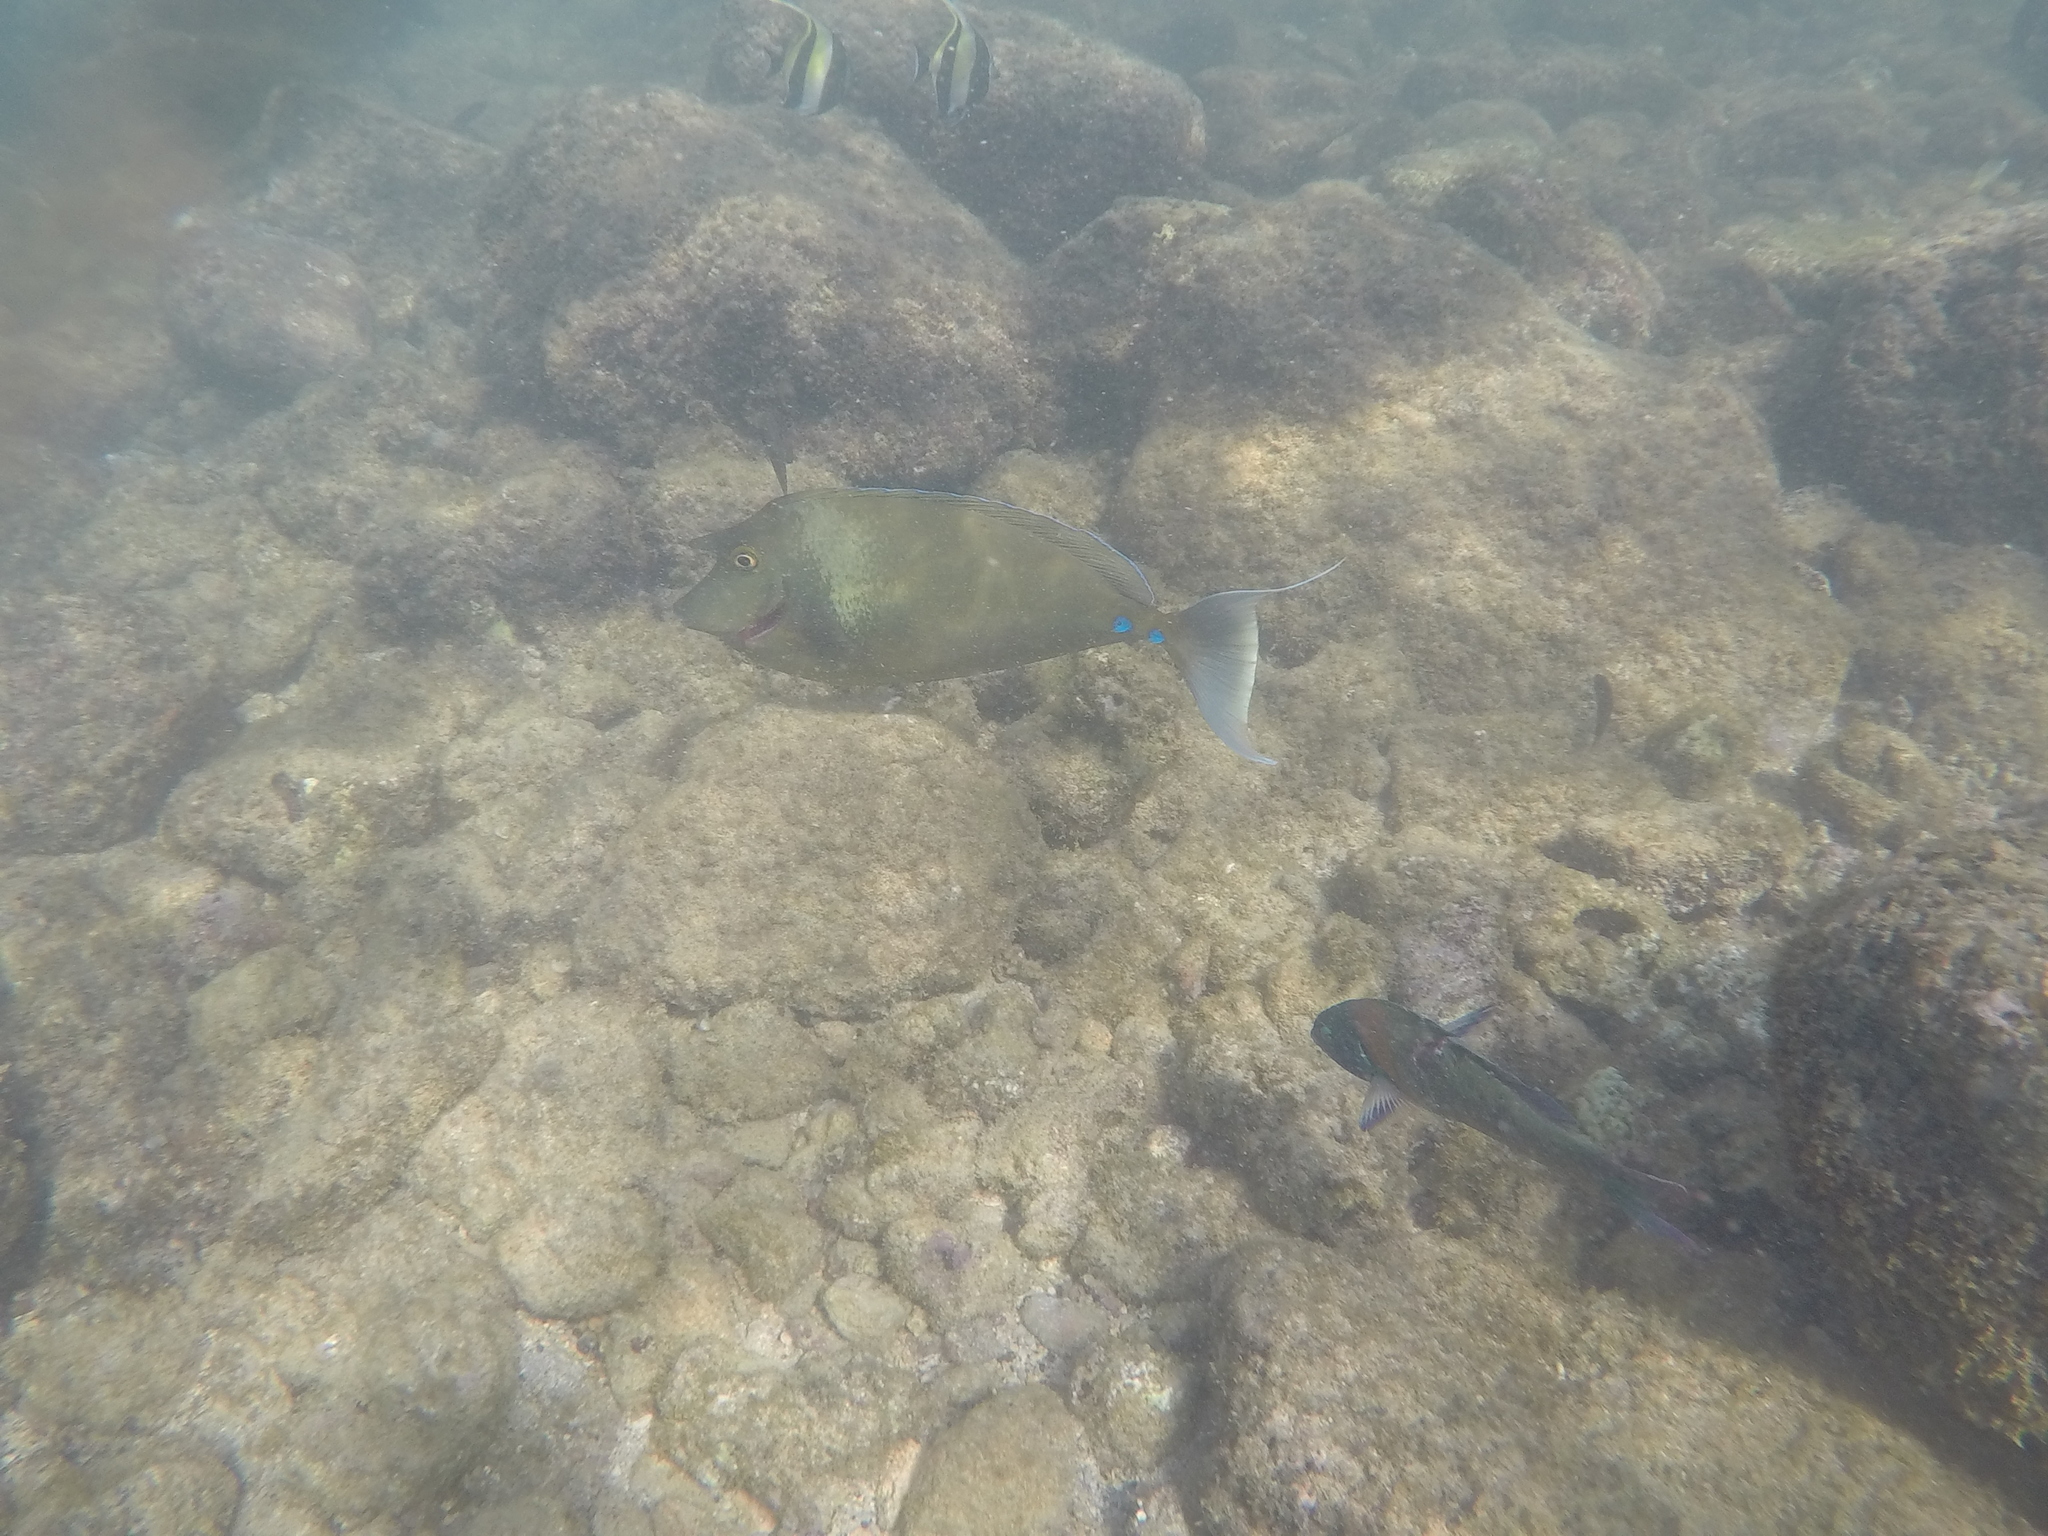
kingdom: Animalia
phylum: Chordata
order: Perciformes
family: Acanthuridae
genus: Naso
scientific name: Naso unicornis
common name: Bluespine unicornfish
